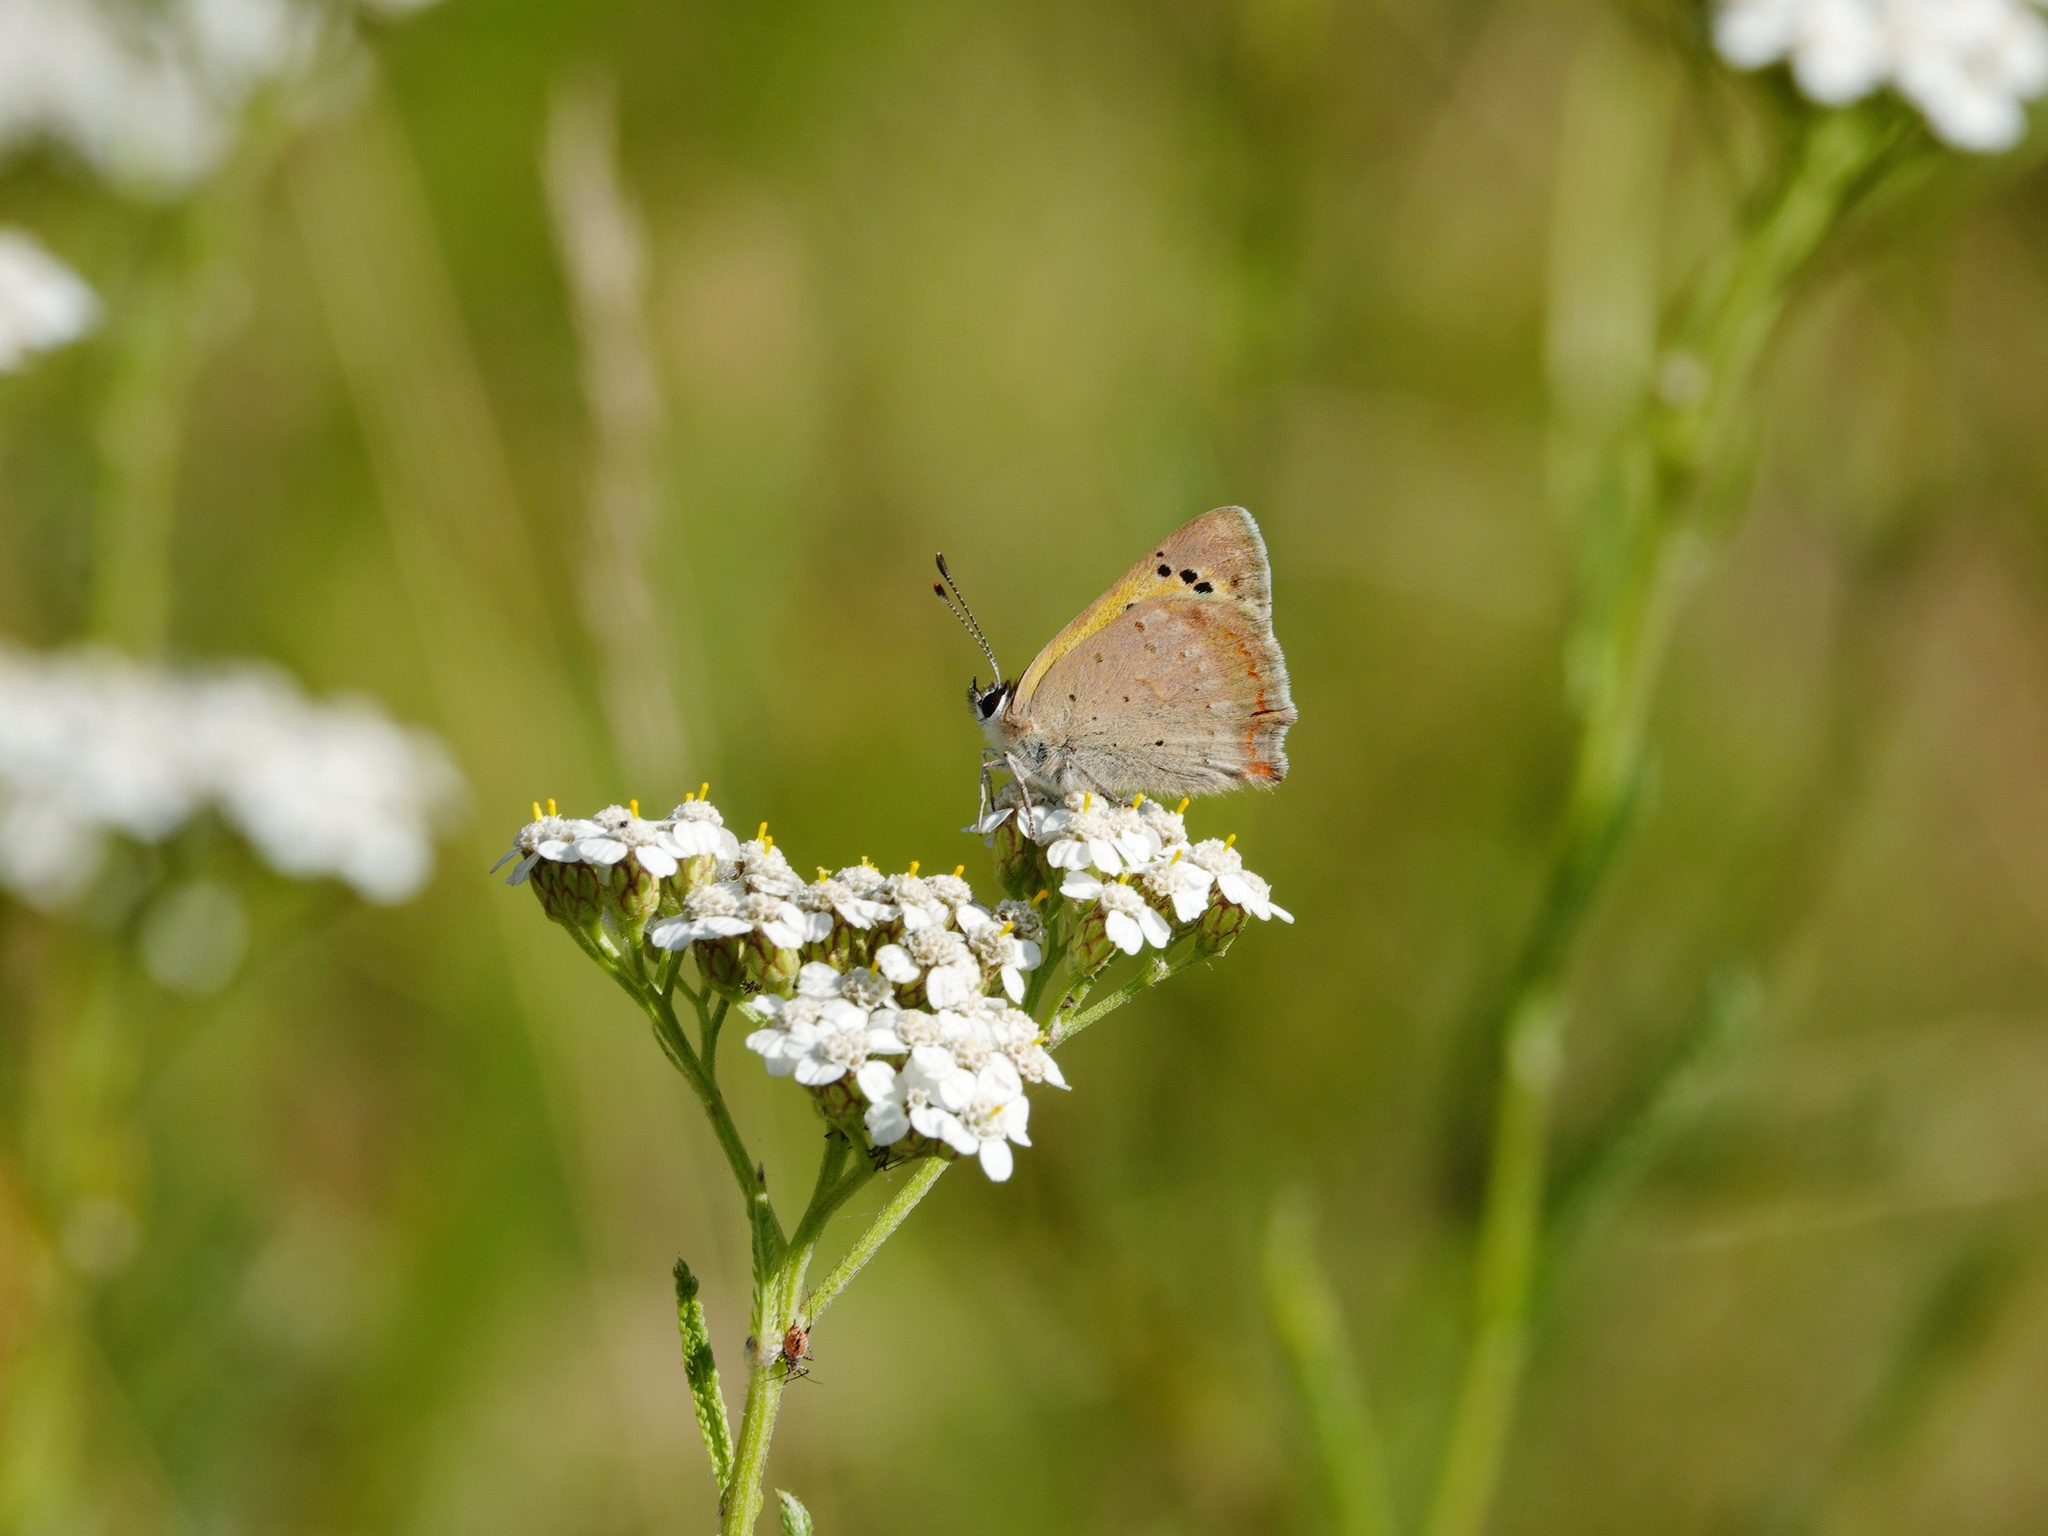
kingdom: Animalia
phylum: Arthropoda
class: Insecta
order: Lepidoptera
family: Lycaenidae
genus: Lycaena
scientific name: Lycaena phlaeas
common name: Small copper
